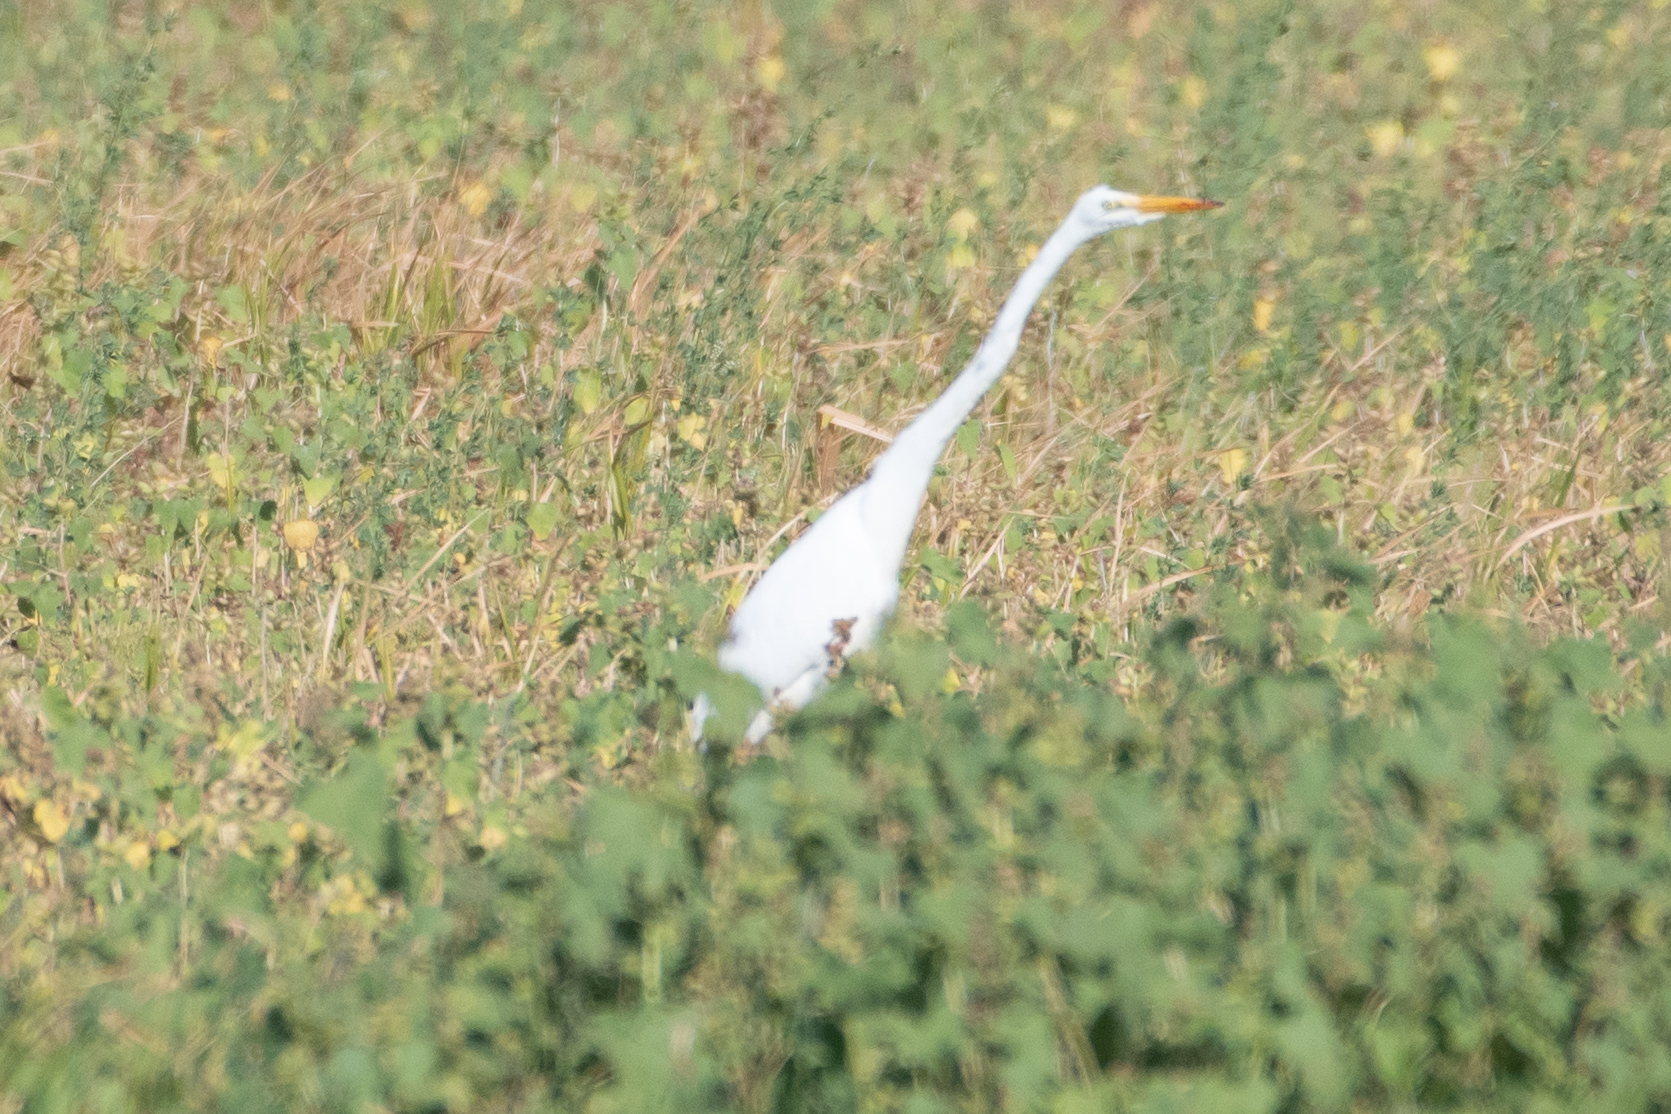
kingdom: Animalia
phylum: Chordata
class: Aves
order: Pelecaniformes
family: Ardeidae
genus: Ardea
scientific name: Ardea alba
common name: Great egret
